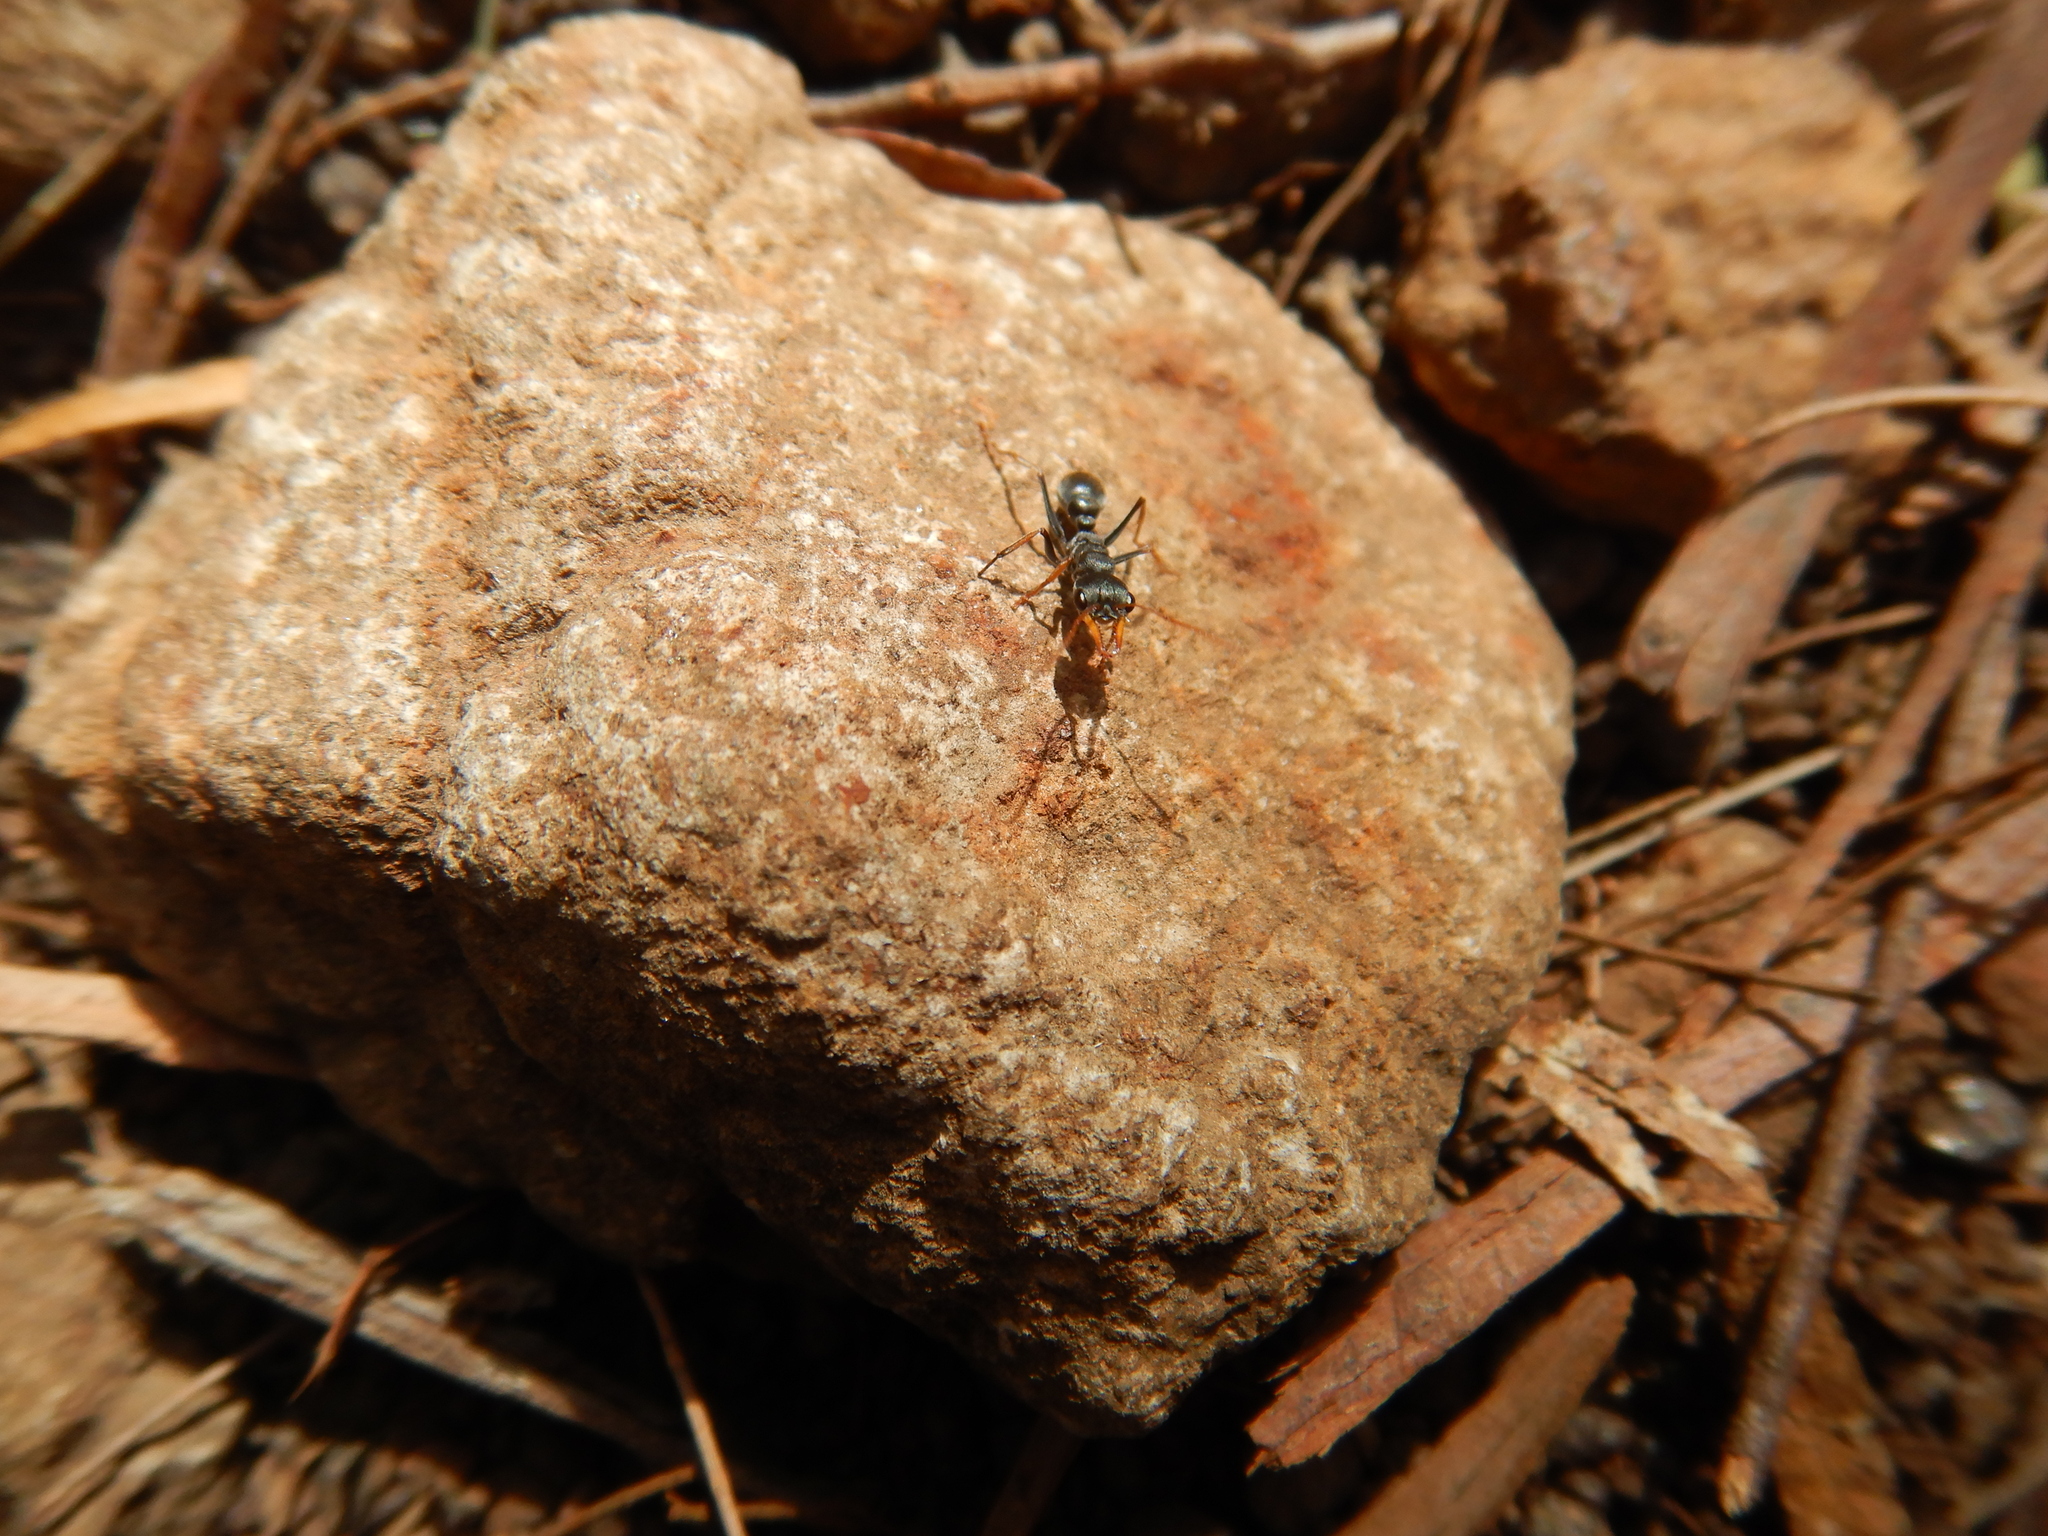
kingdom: Animalia
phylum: Arthropoda
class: Insecta
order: Hymenoptera
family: Formicidae
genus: Myrmecia
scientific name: Myrmecia pilosula
